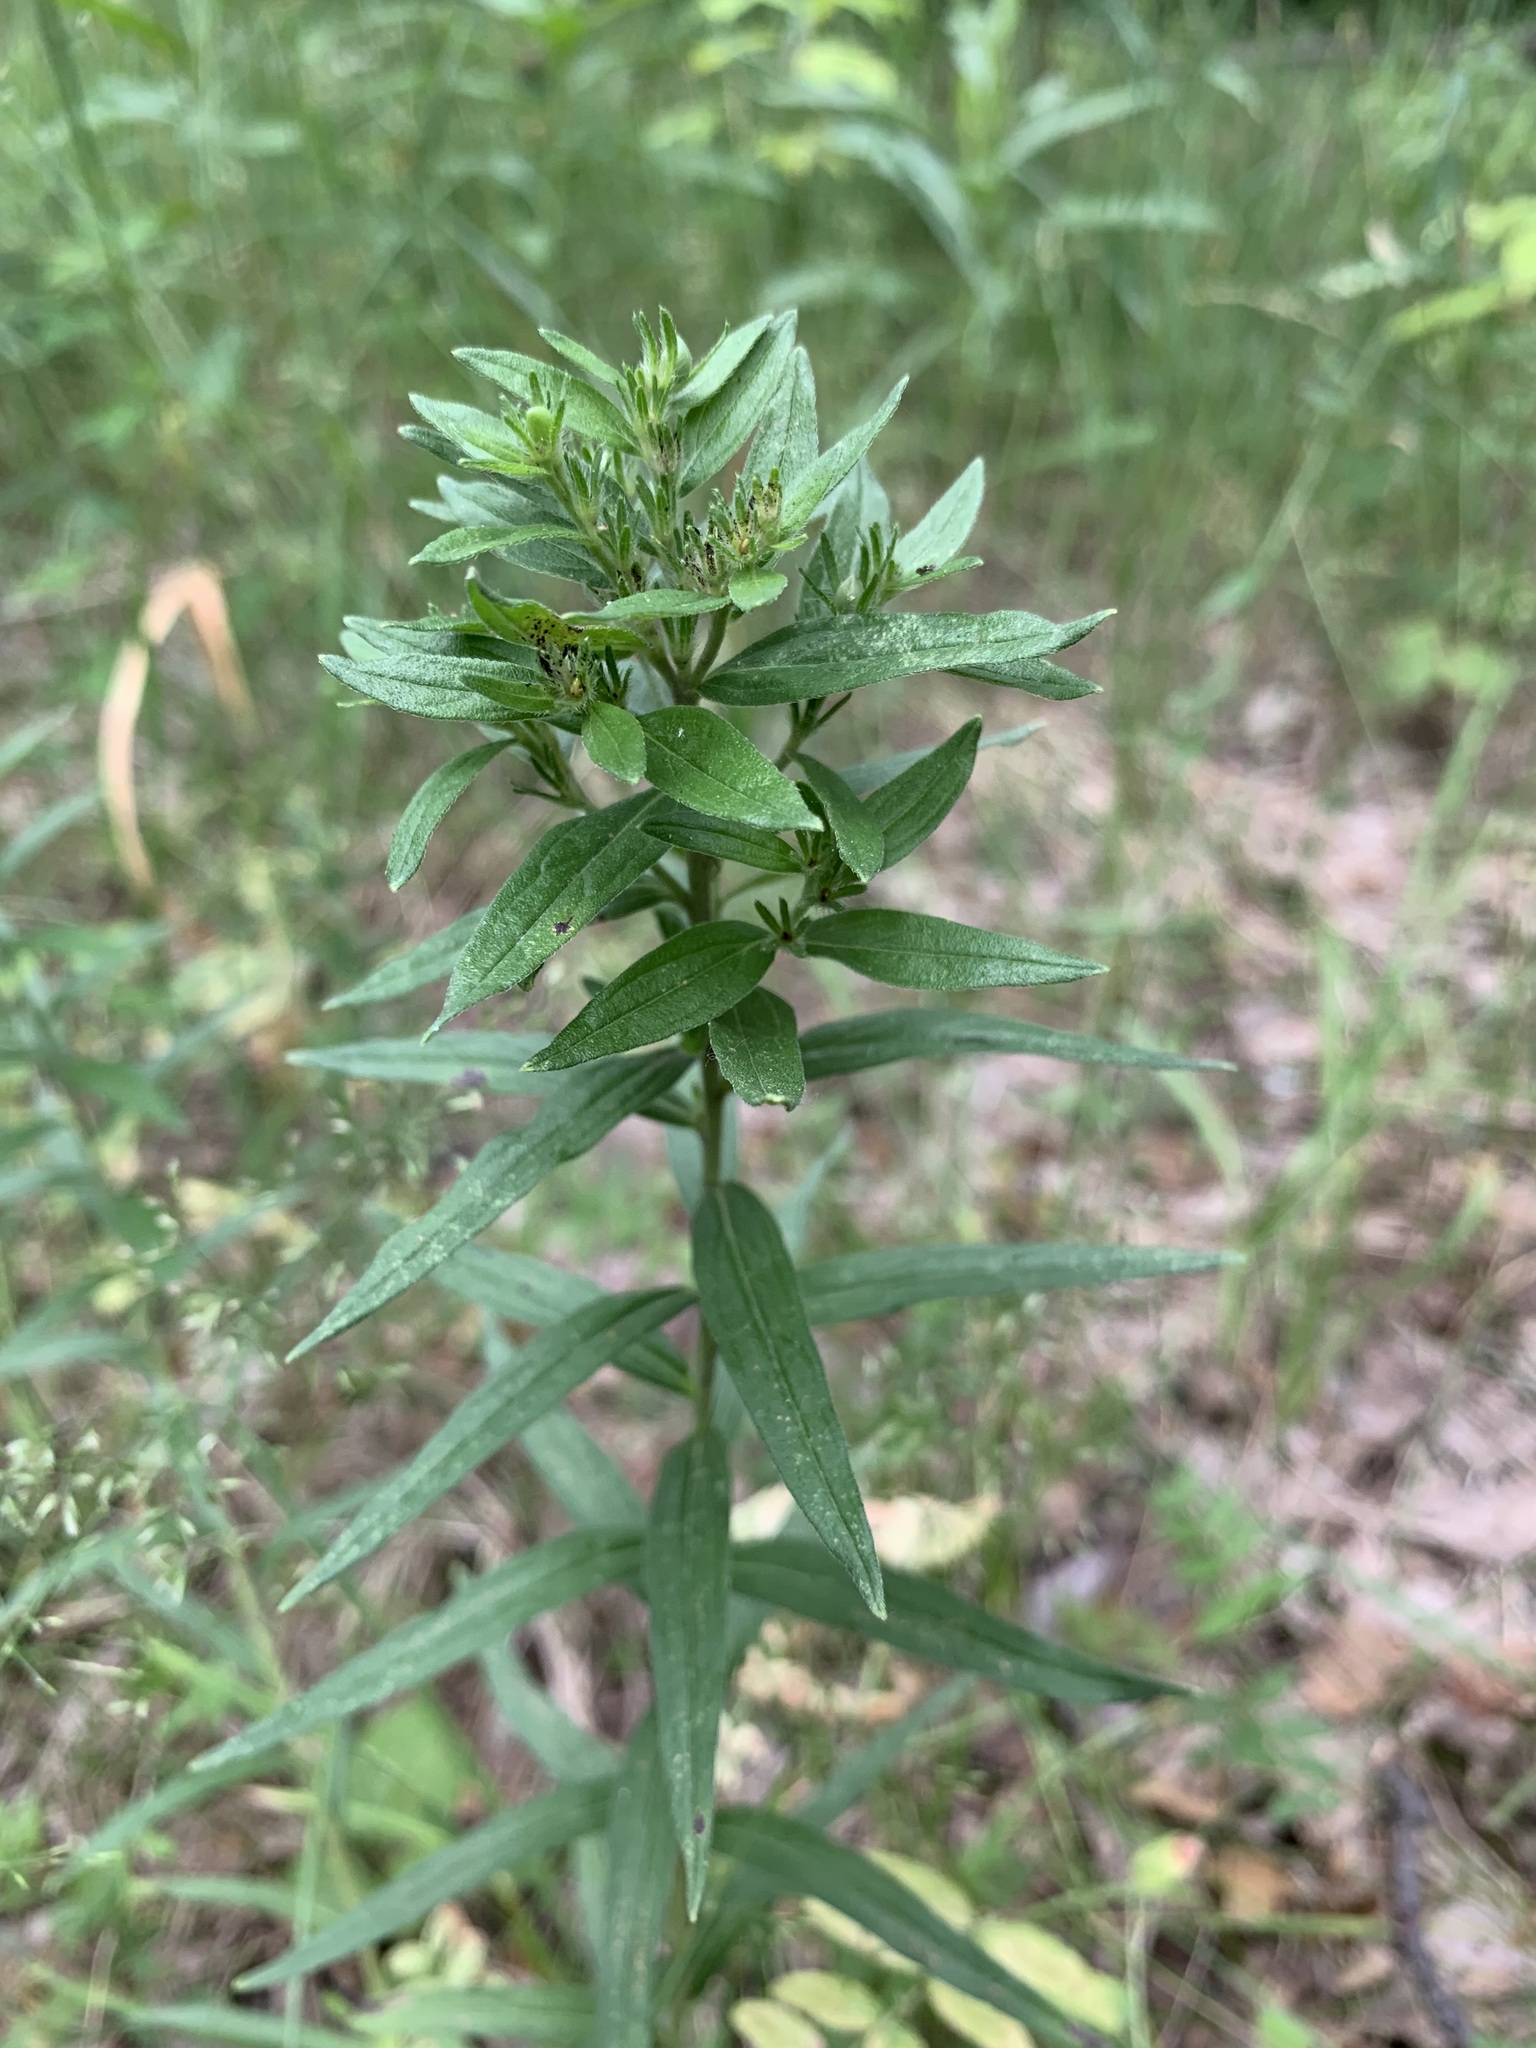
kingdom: Plantae
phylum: Tracheophyta
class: Magnoliopsida
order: Boraginales
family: Boraginaceae
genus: Lithospermum
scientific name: Lithospermum officinale
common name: Common gromwell
